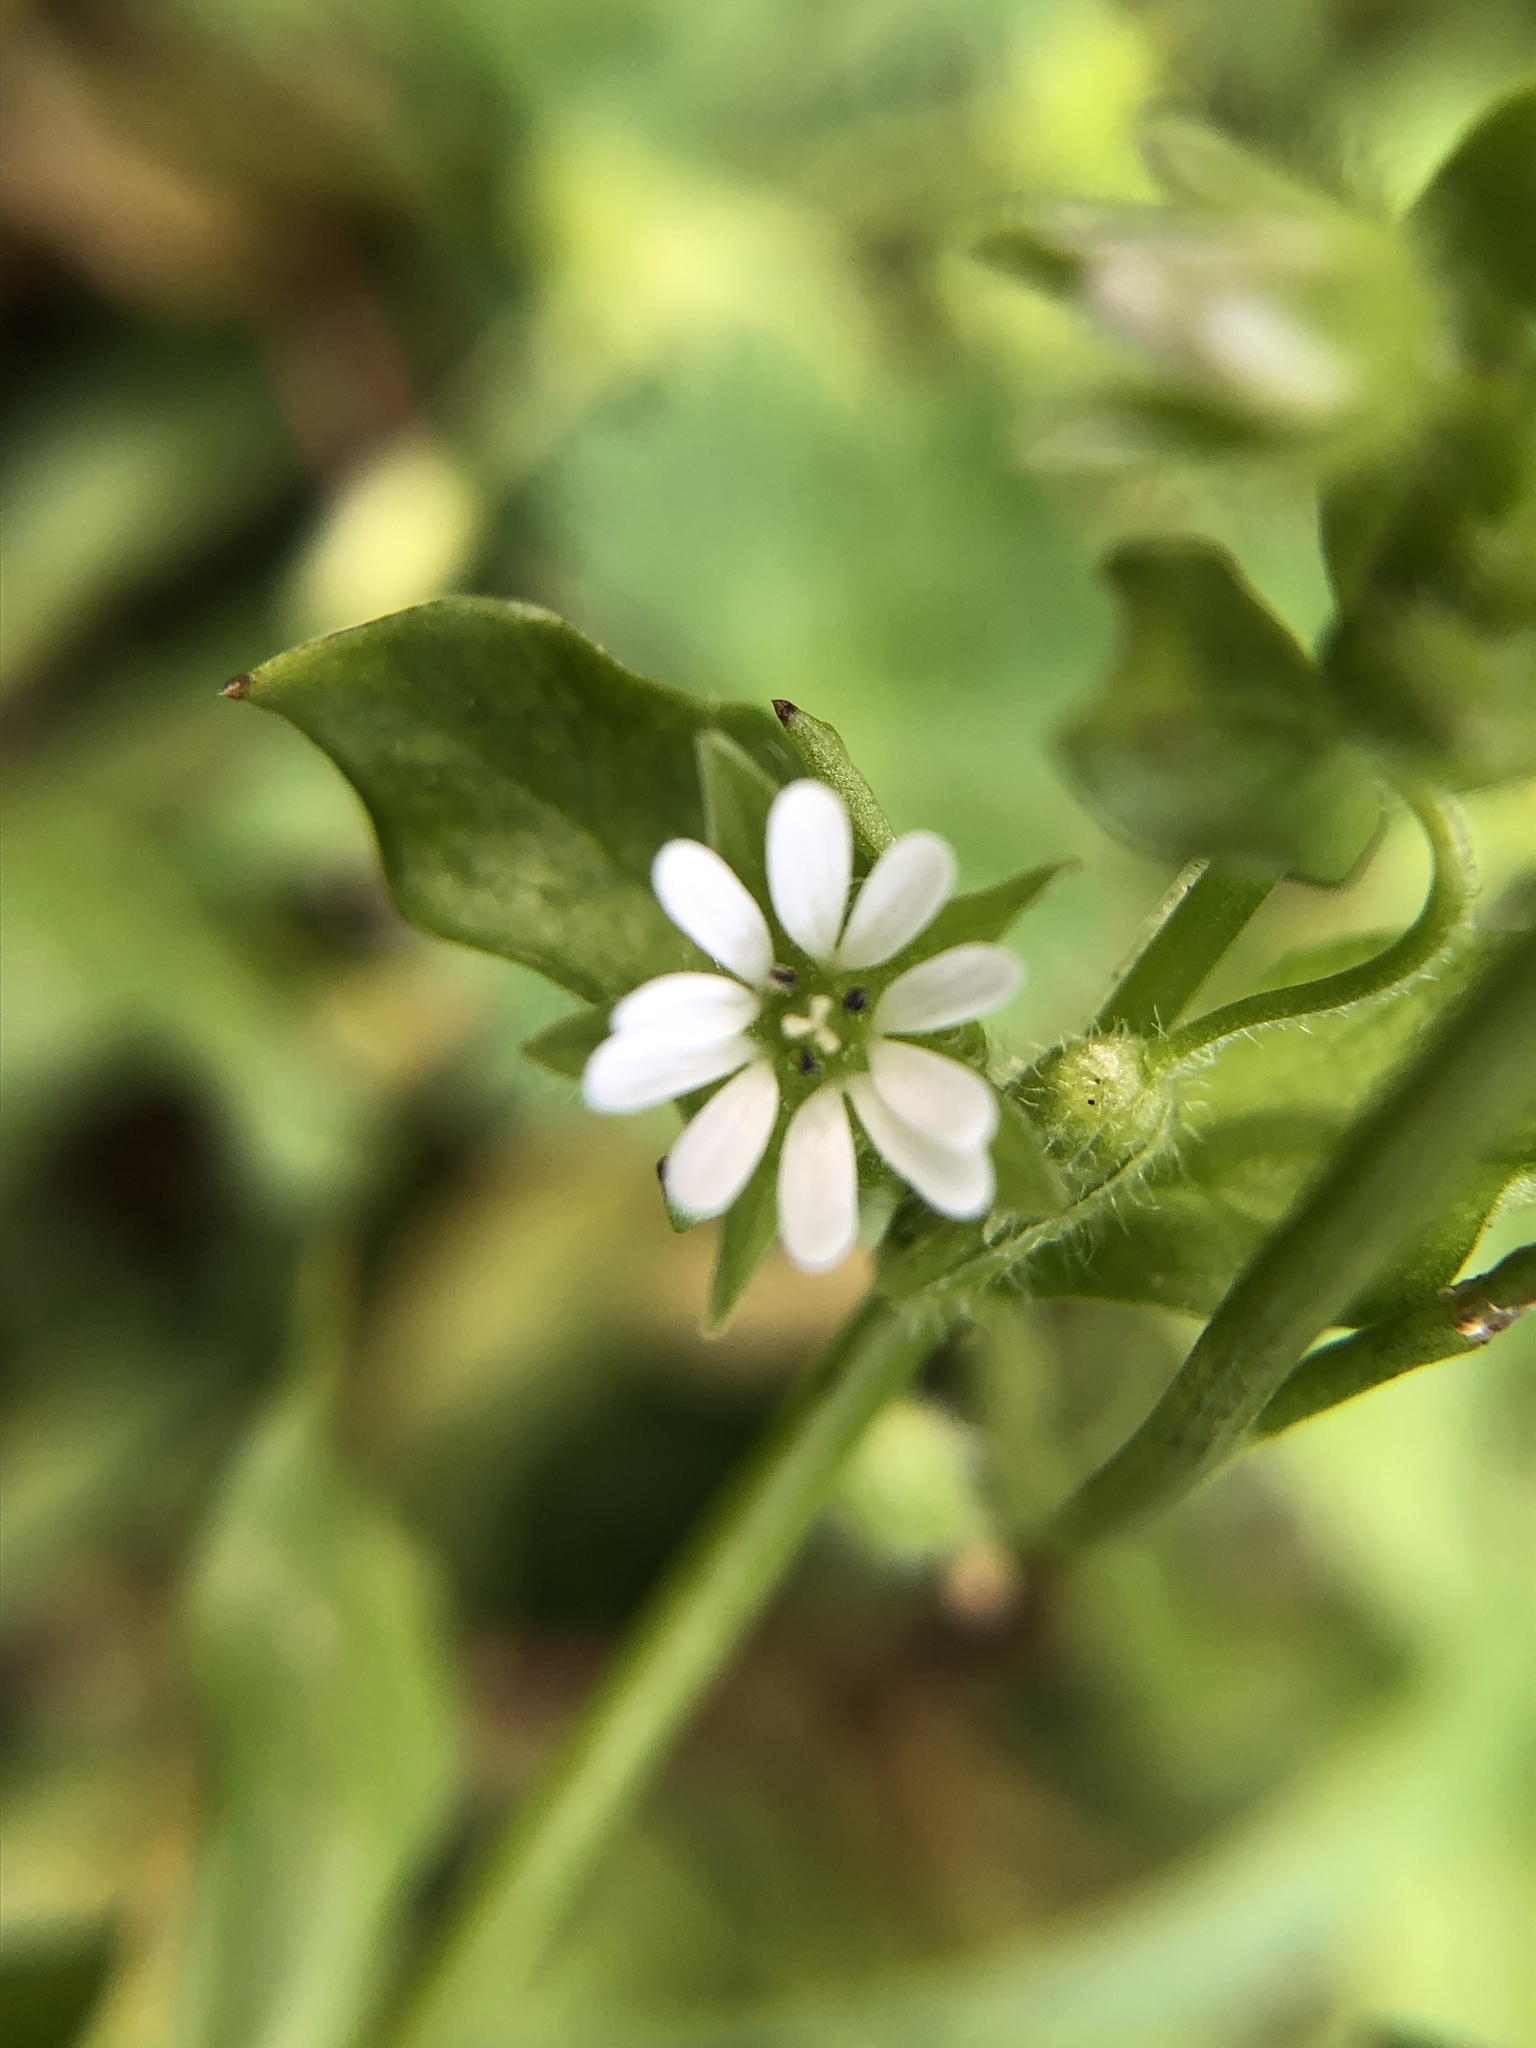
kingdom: Plantae
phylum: Tracheophyta
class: Magnoliopsida
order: Caryophyllales
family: Caryophyllaceae
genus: Stellaria
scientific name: Stellaria media
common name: Common chickweed
